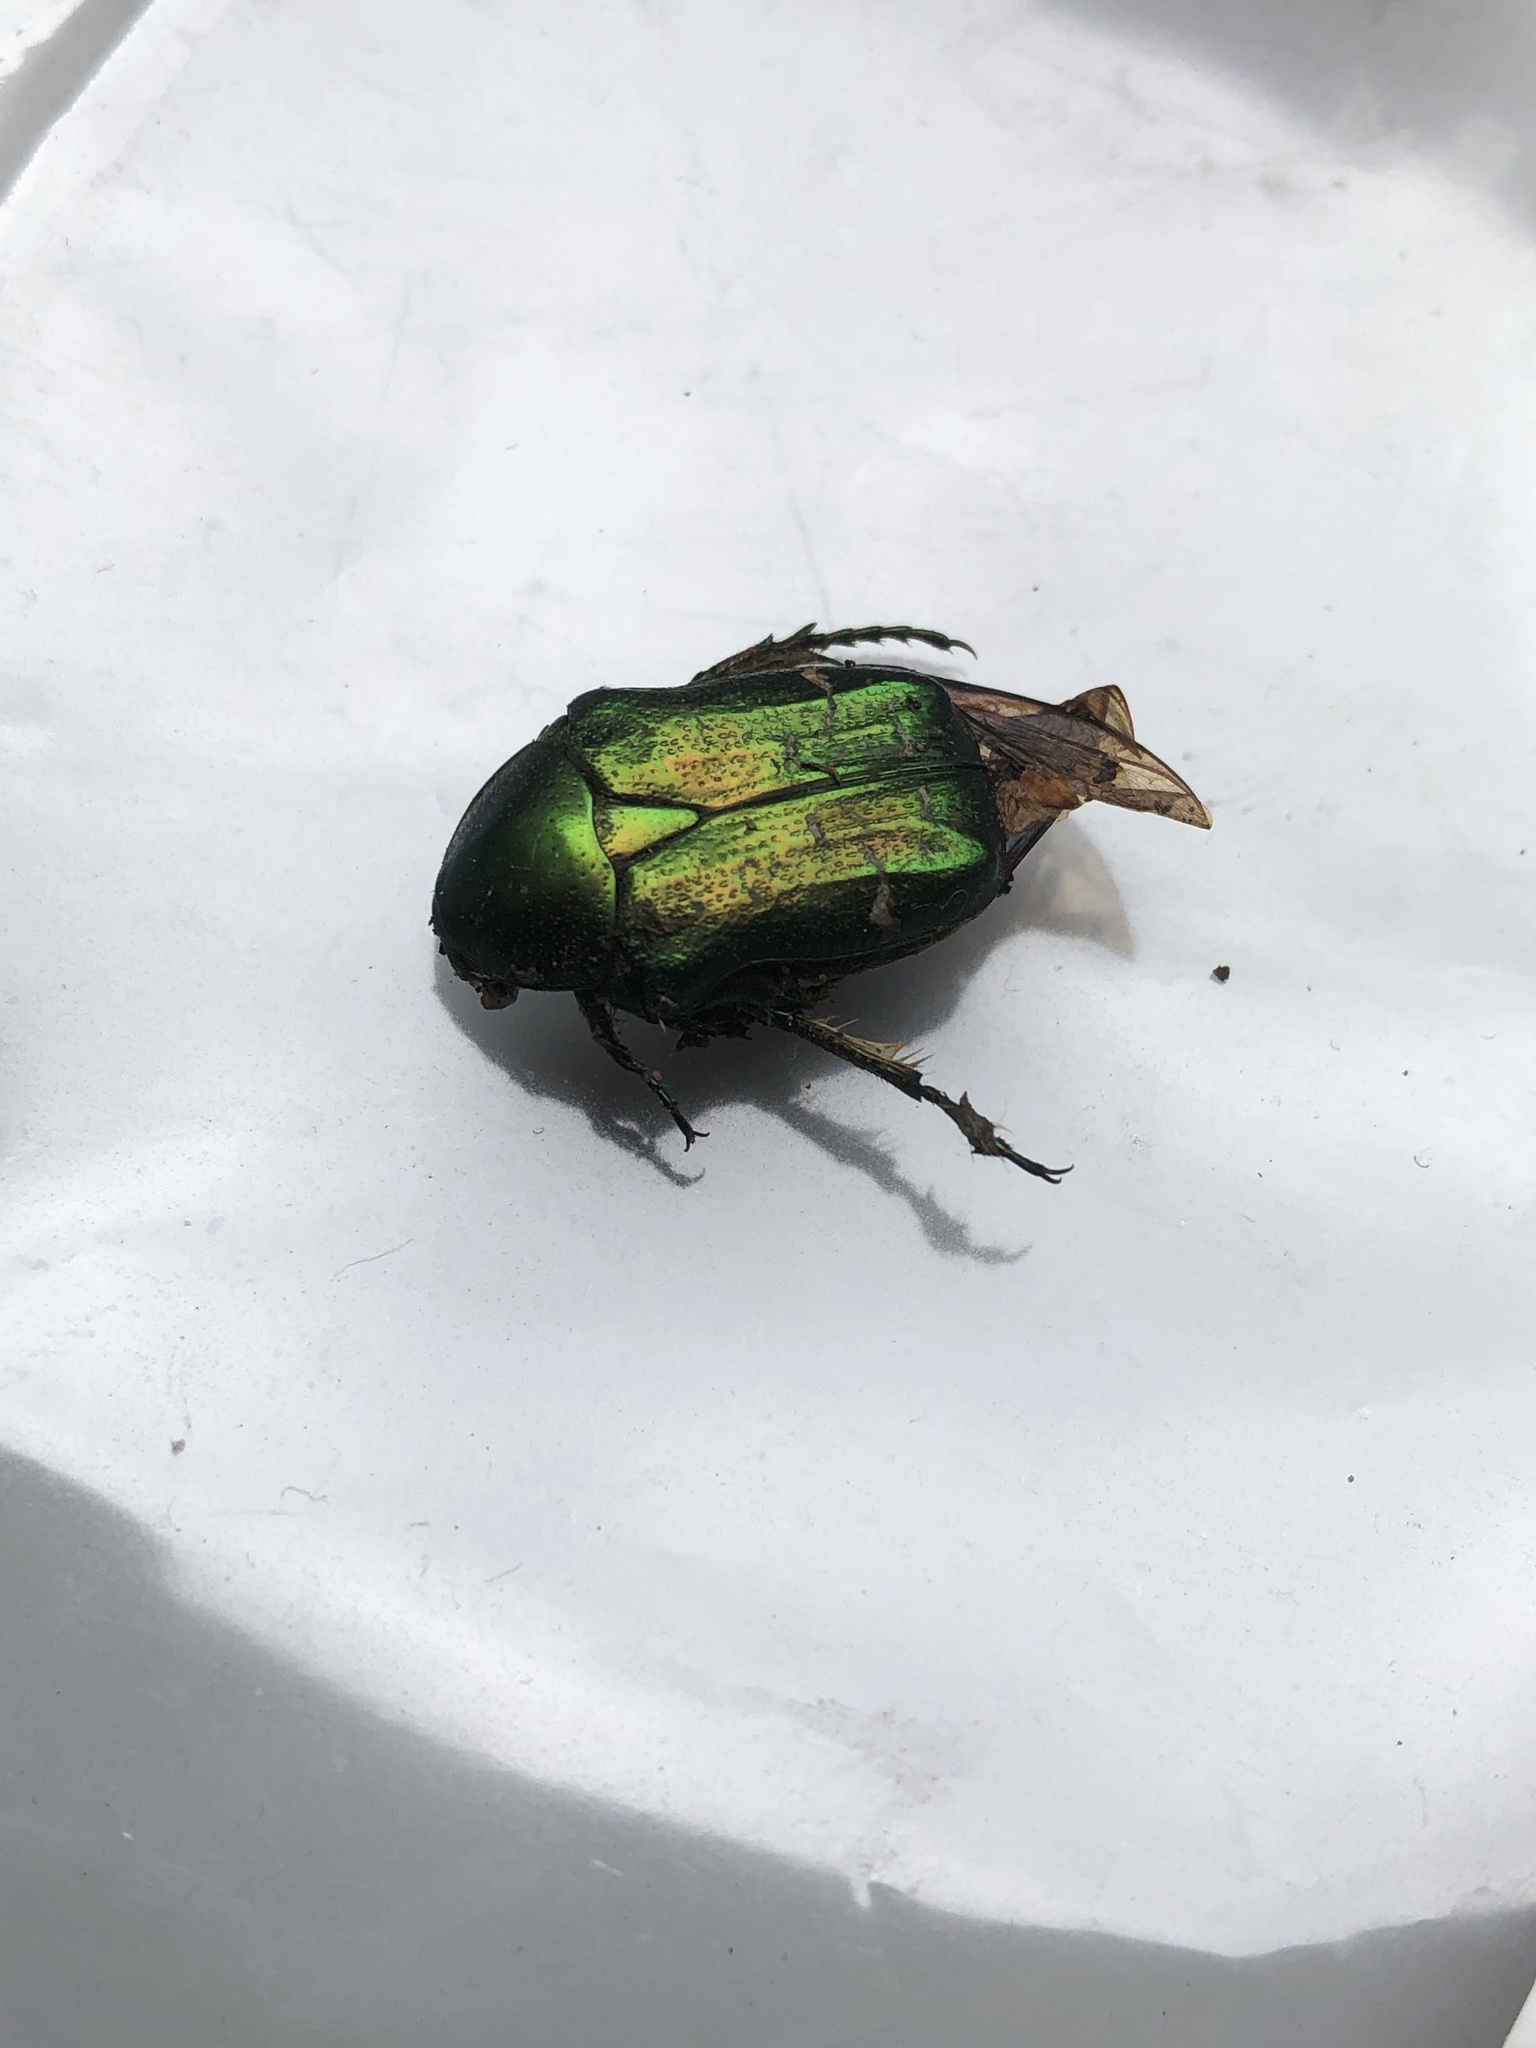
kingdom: Animalia
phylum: Arthropoda
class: Insecta
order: Coleoptera
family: Scarabaeidae
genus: Cetonia
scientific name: Cetonia aurata
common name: Rose chafer
